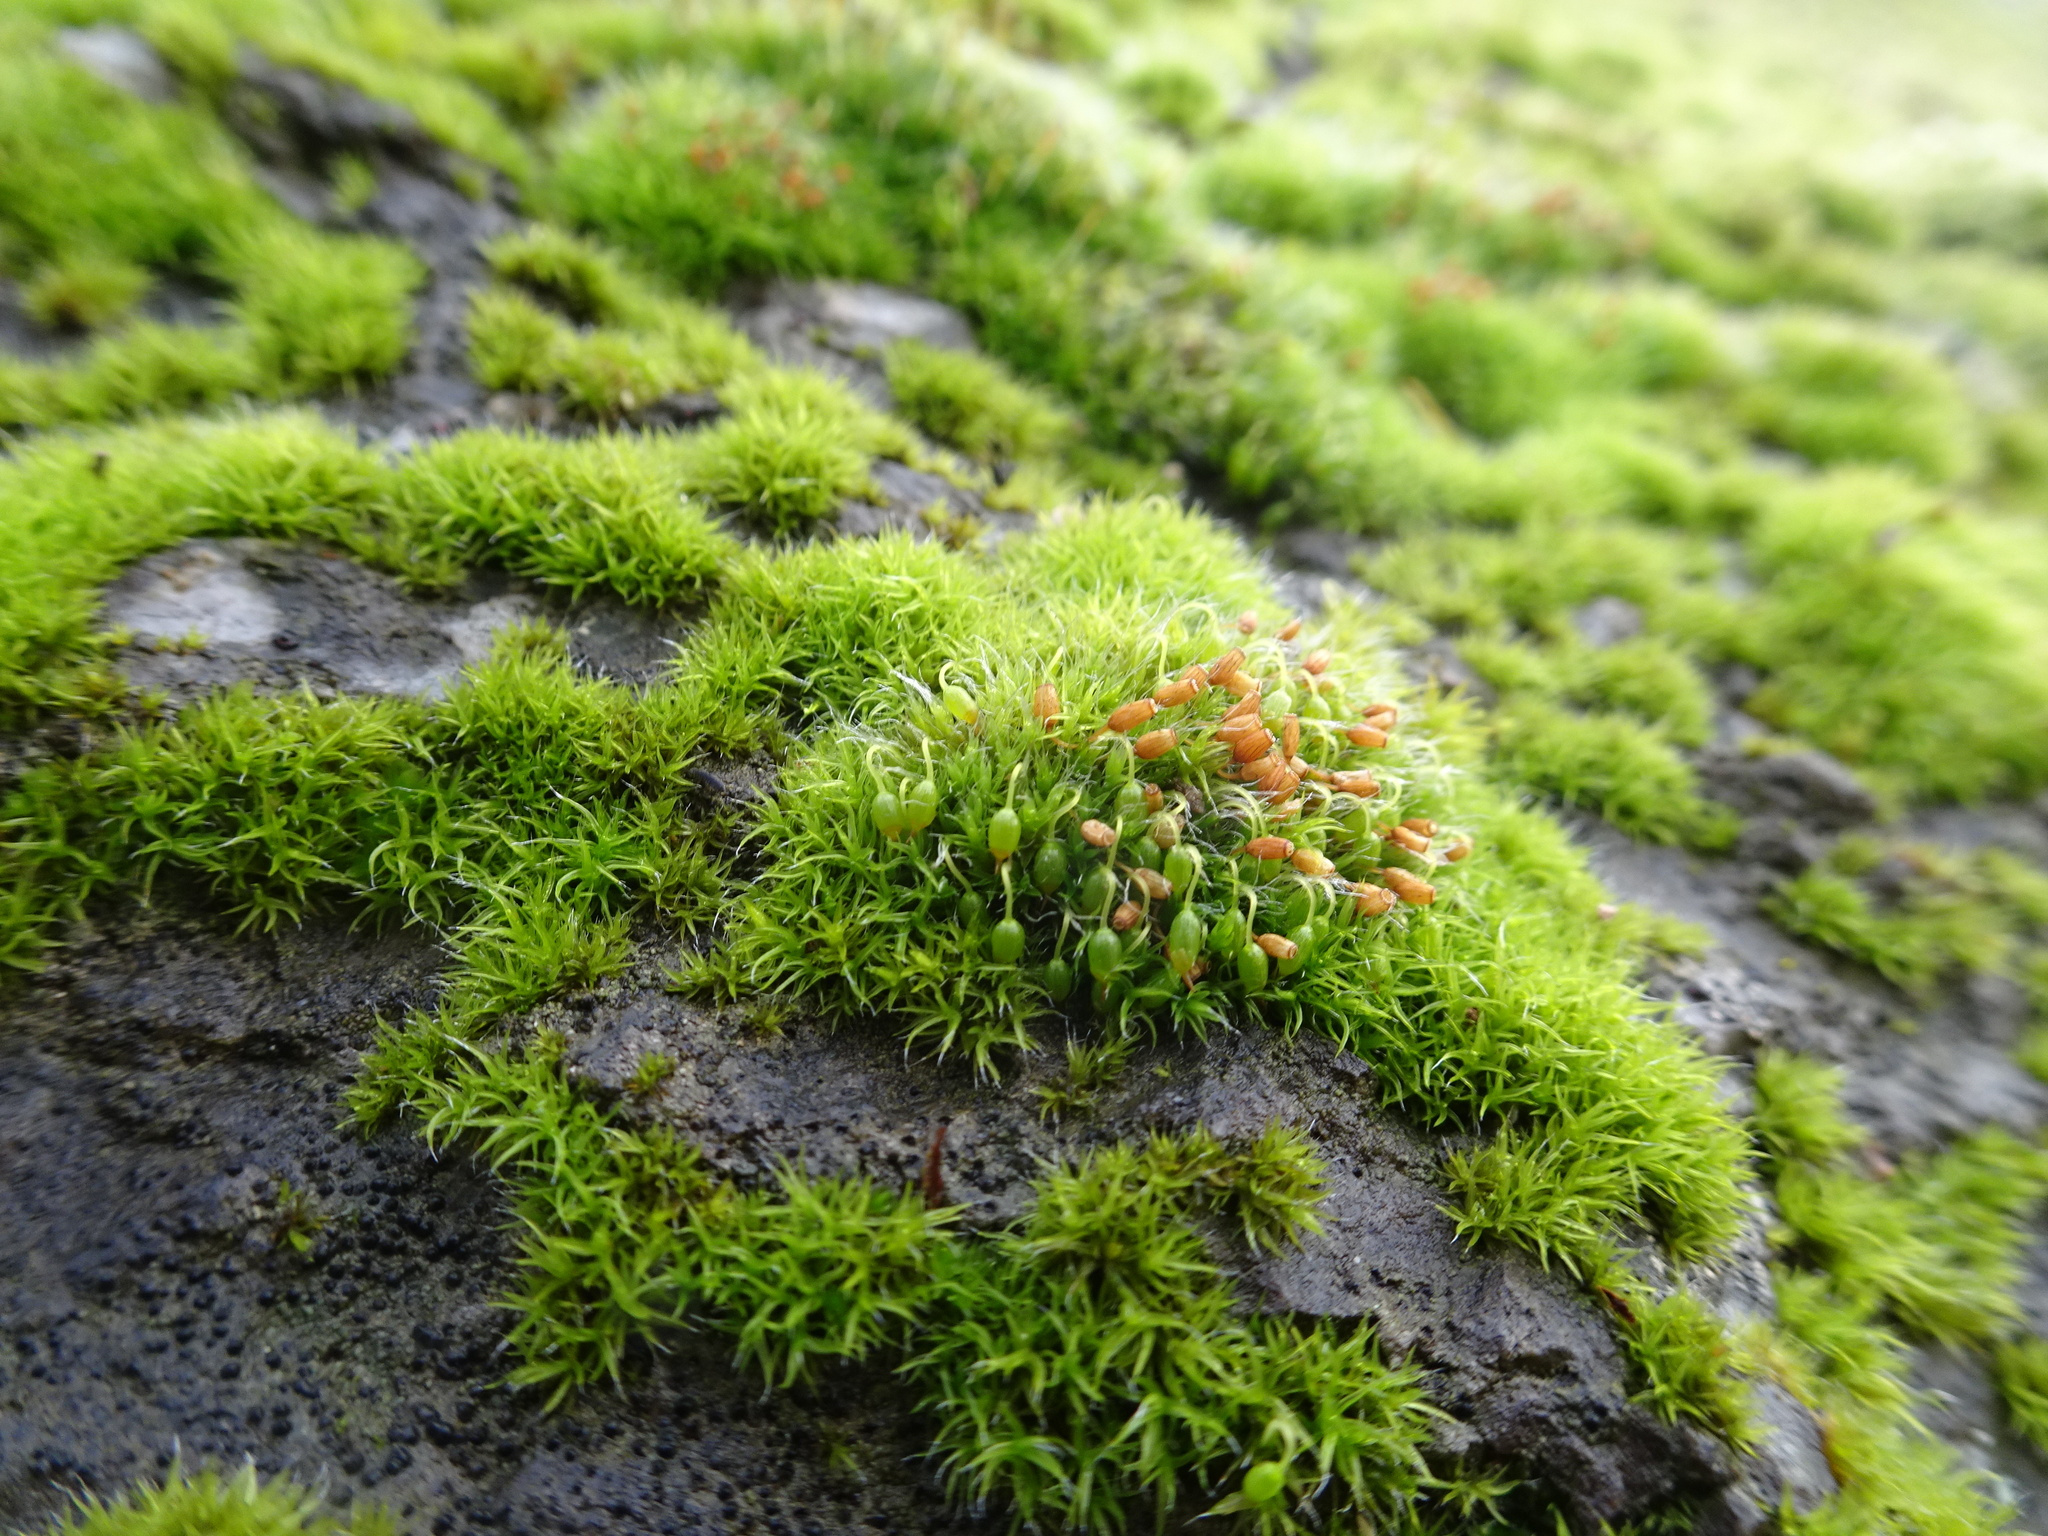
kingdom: Plantae
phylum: Bryophyta
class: Bryopsida
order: Grimmiales
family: Grimmiaceae
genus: Grimmia
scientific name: Grimmia pulvinata
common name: Grey-cushioned grimmia
